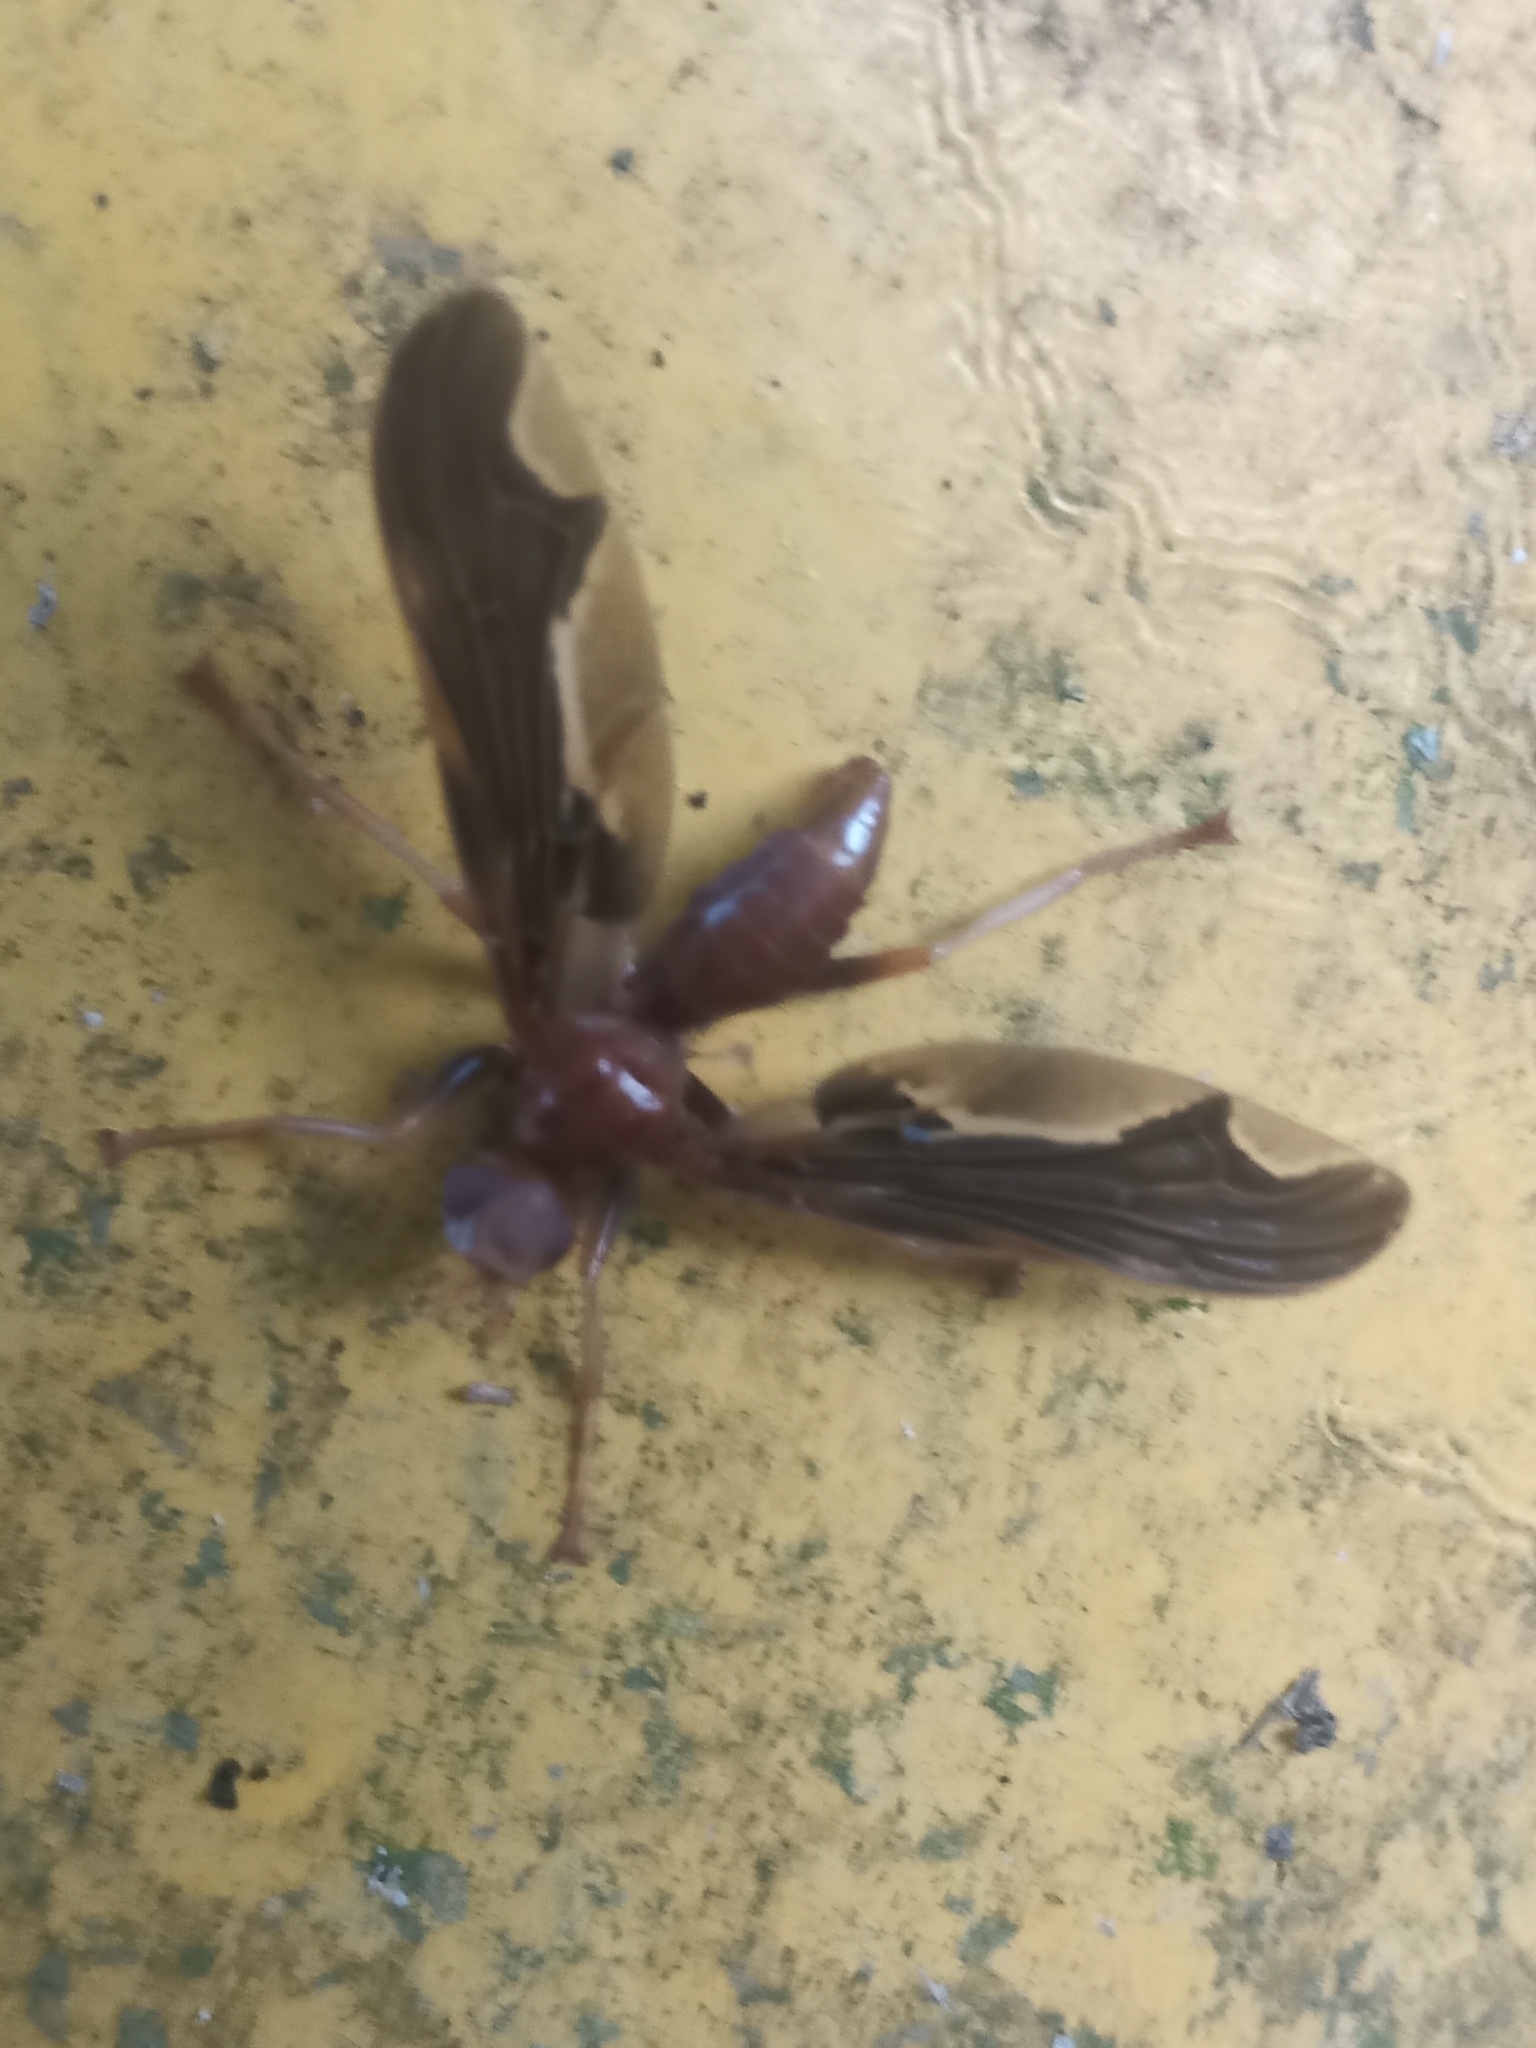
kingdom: Animalia
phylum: Arthropoda
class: Insecta
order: Diptera
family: Pyrgotidae
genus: Pyrgota
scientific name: Pyrgota undata
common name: Waved light fly
